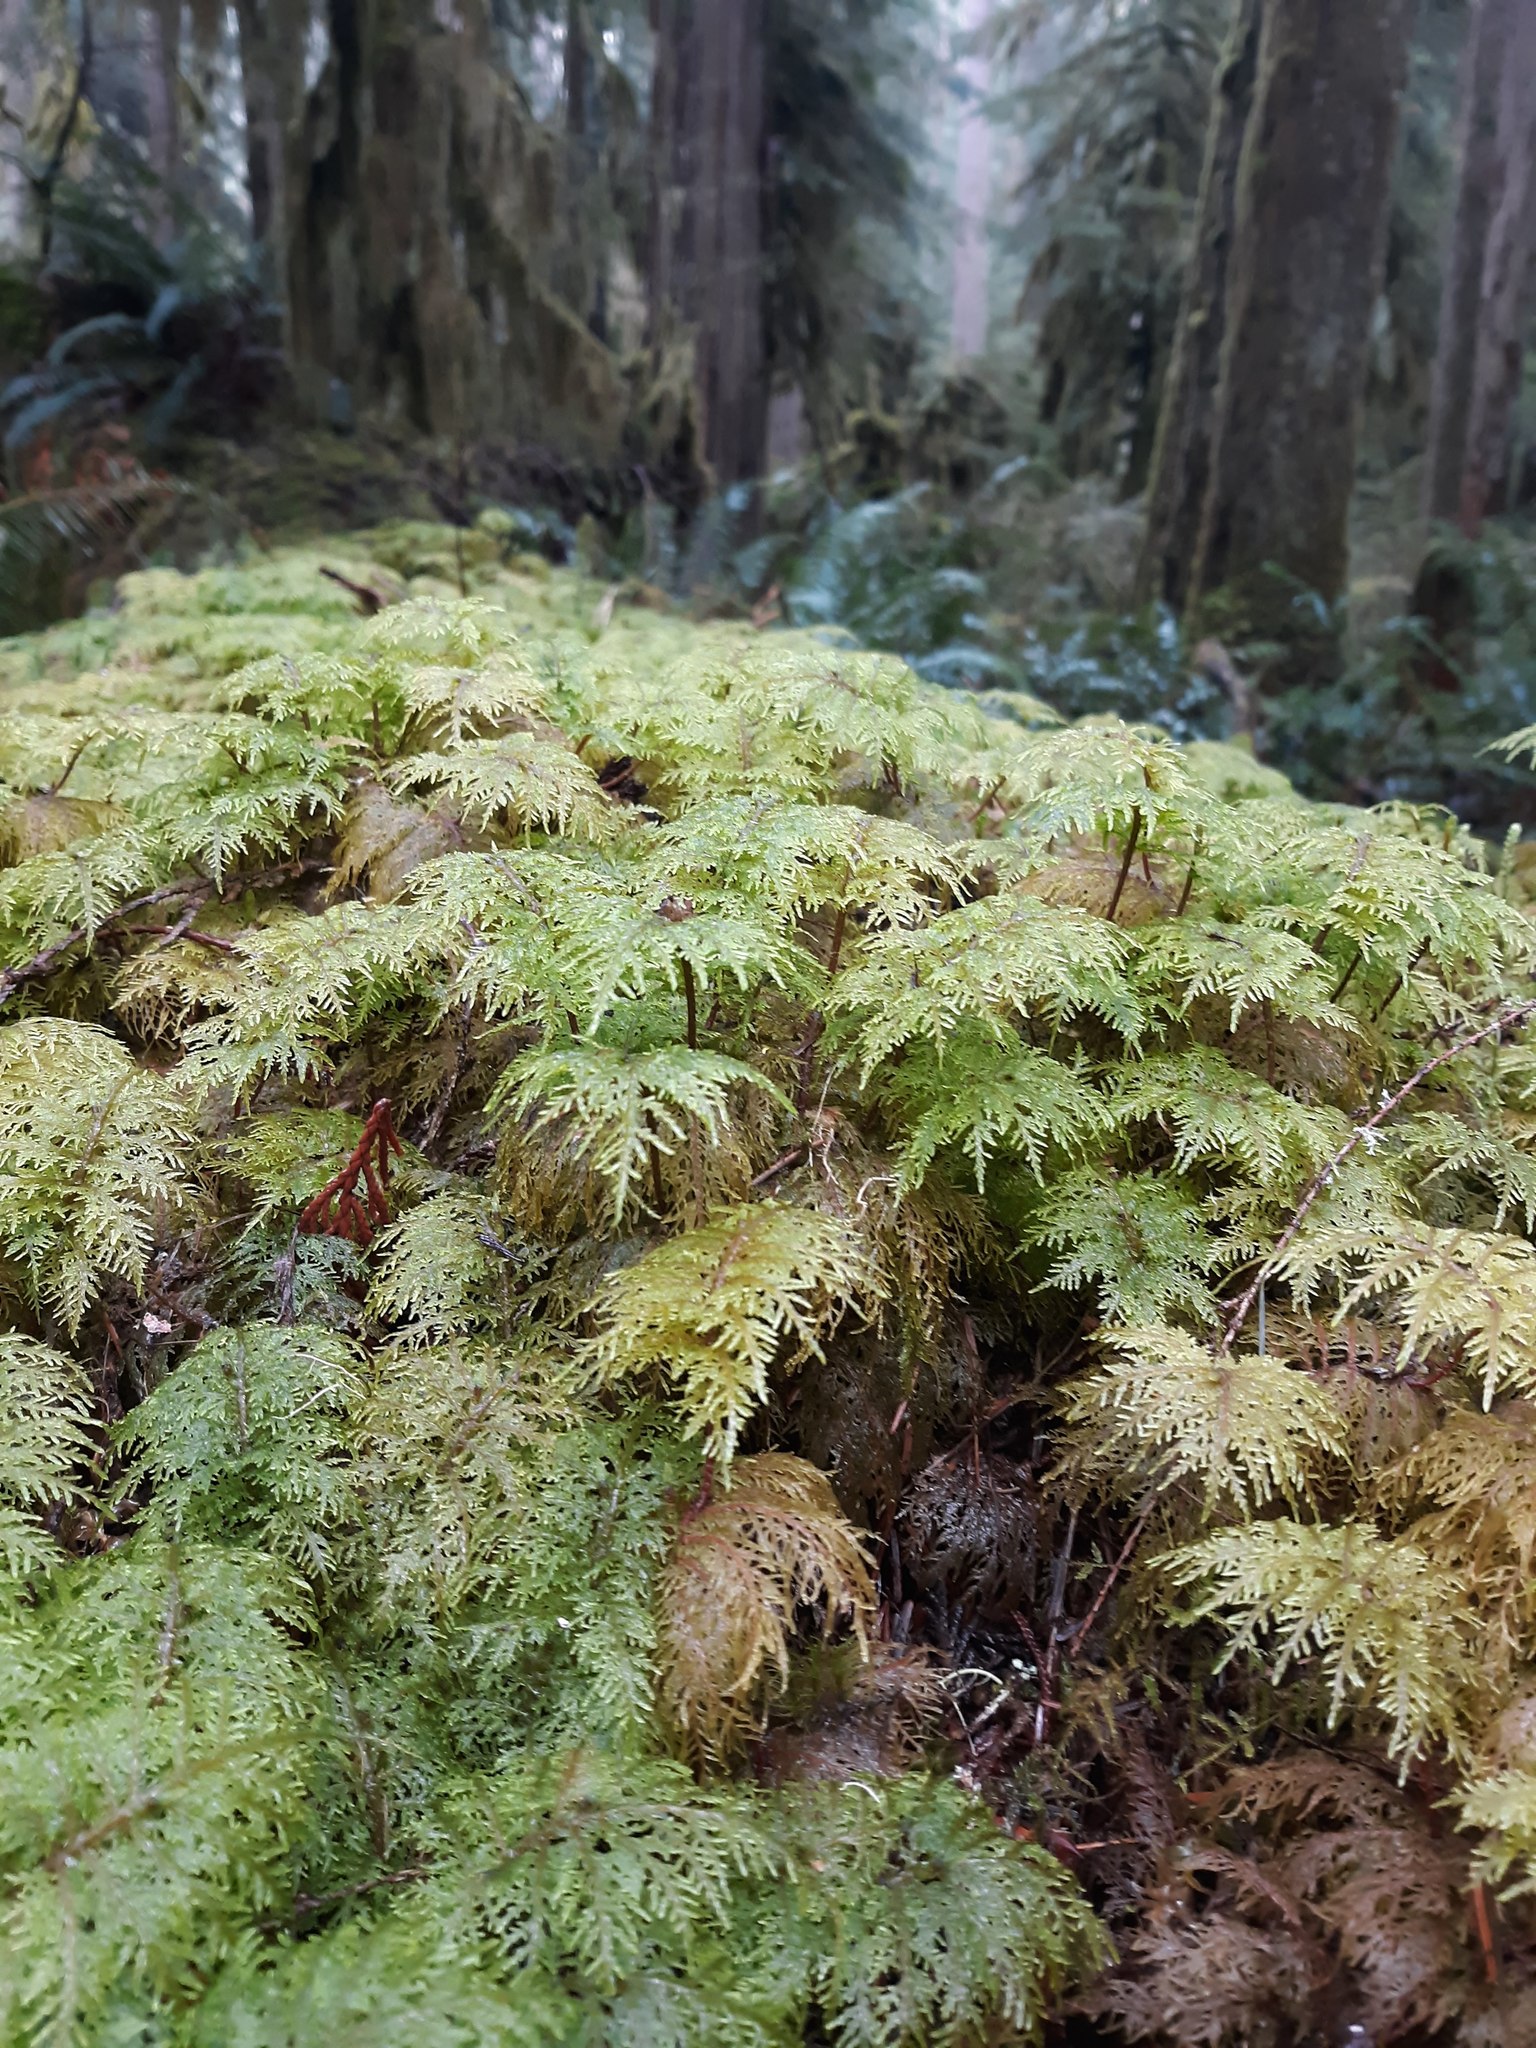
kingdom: Plantae
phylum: Bryophyta
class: Bryopsida
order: Hypnales
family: Hylocomiaceae
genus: Hylocomium
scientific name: Hylocomium splendens
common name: Stairstep moss
